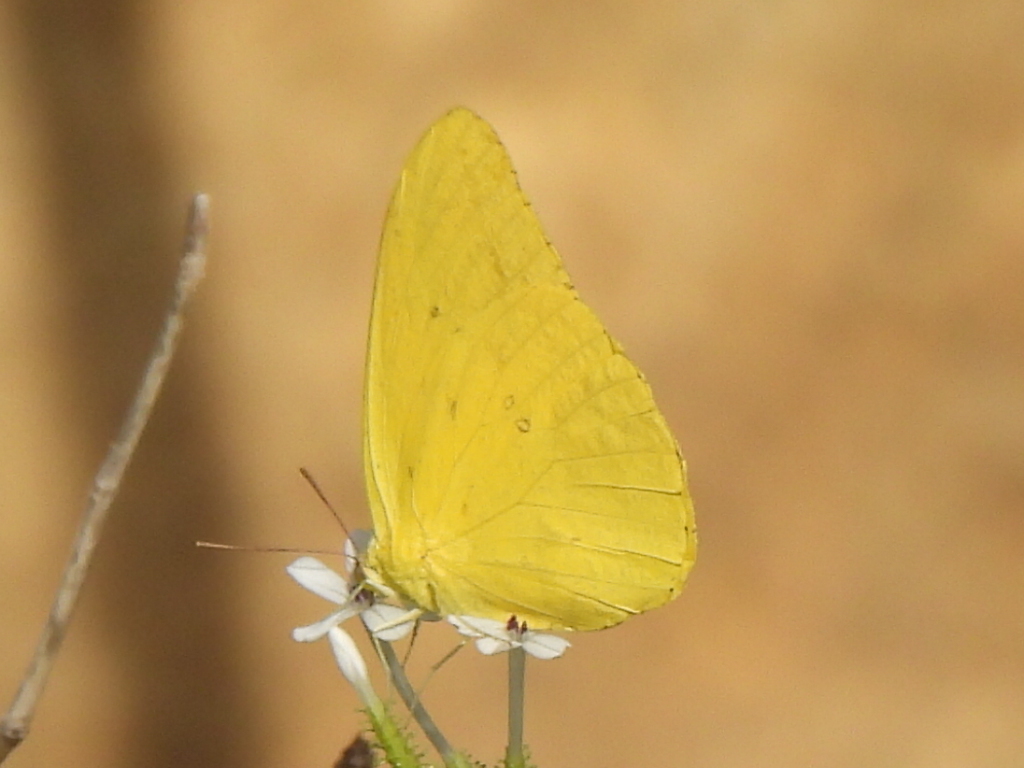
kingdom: Animalia
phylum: Arthropoda
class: Insecta
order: Lepidoptera
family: Pieridae
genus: Phoebis
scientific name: Phoebis agarithe
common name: Large orange sulphur
